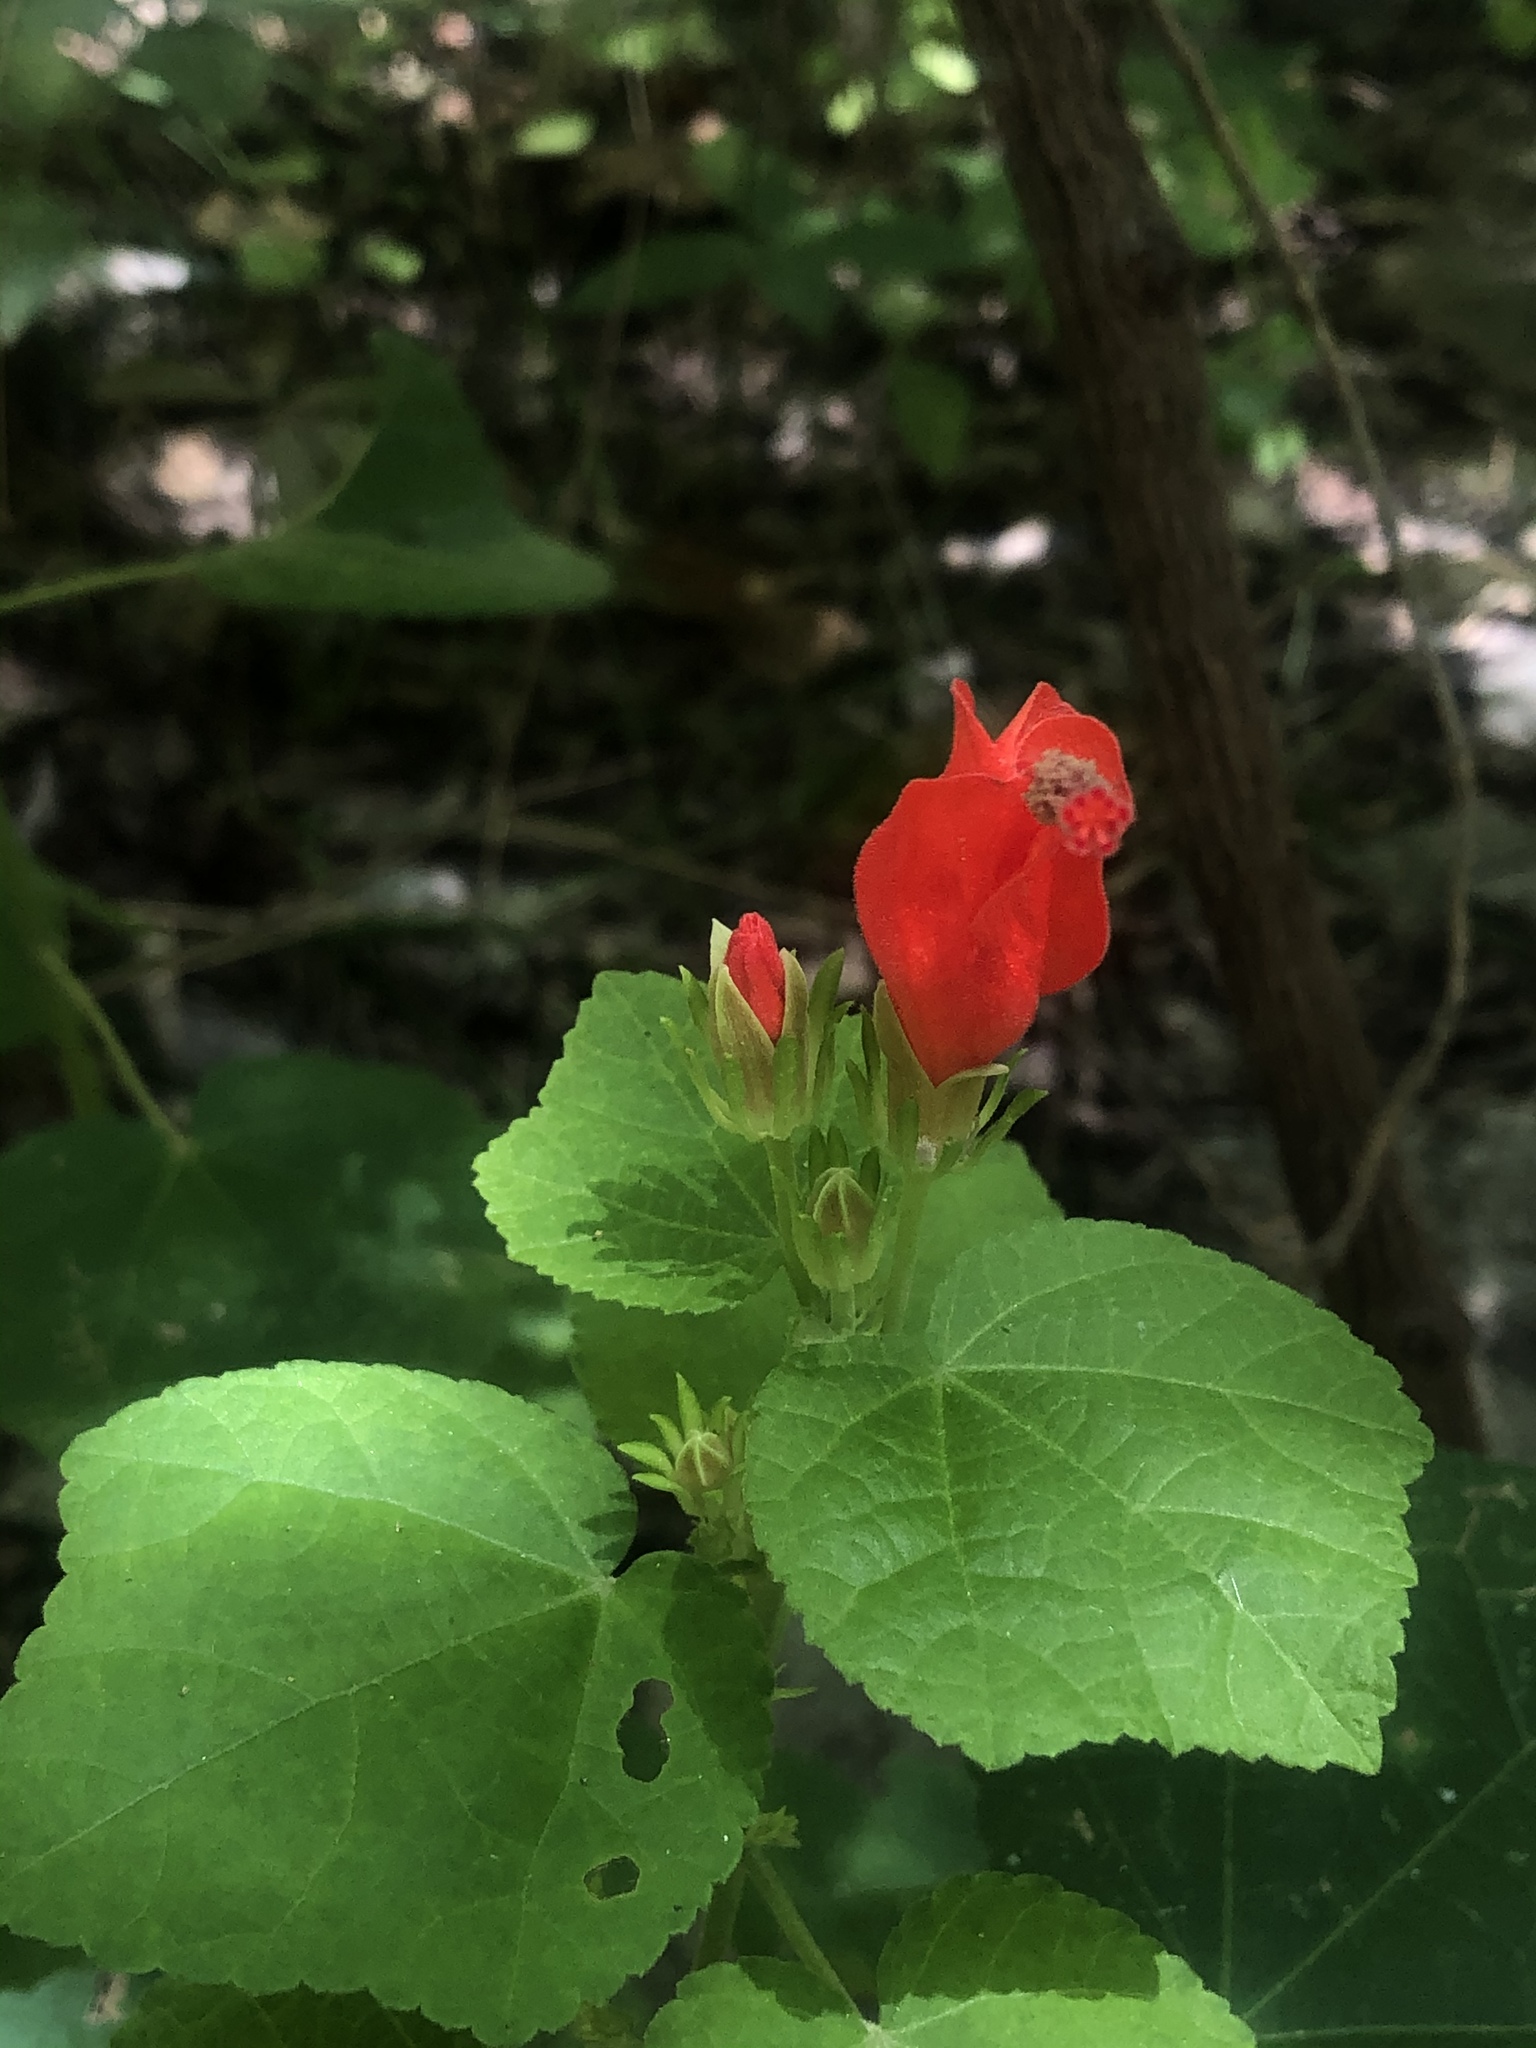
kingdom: Plantae
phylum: Tracheophyta
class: Magnoliopsida
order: Malvales
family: Malvaceae
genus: Malvaviscus
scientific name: Malvaviscus arboreus
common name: Wax mallow
